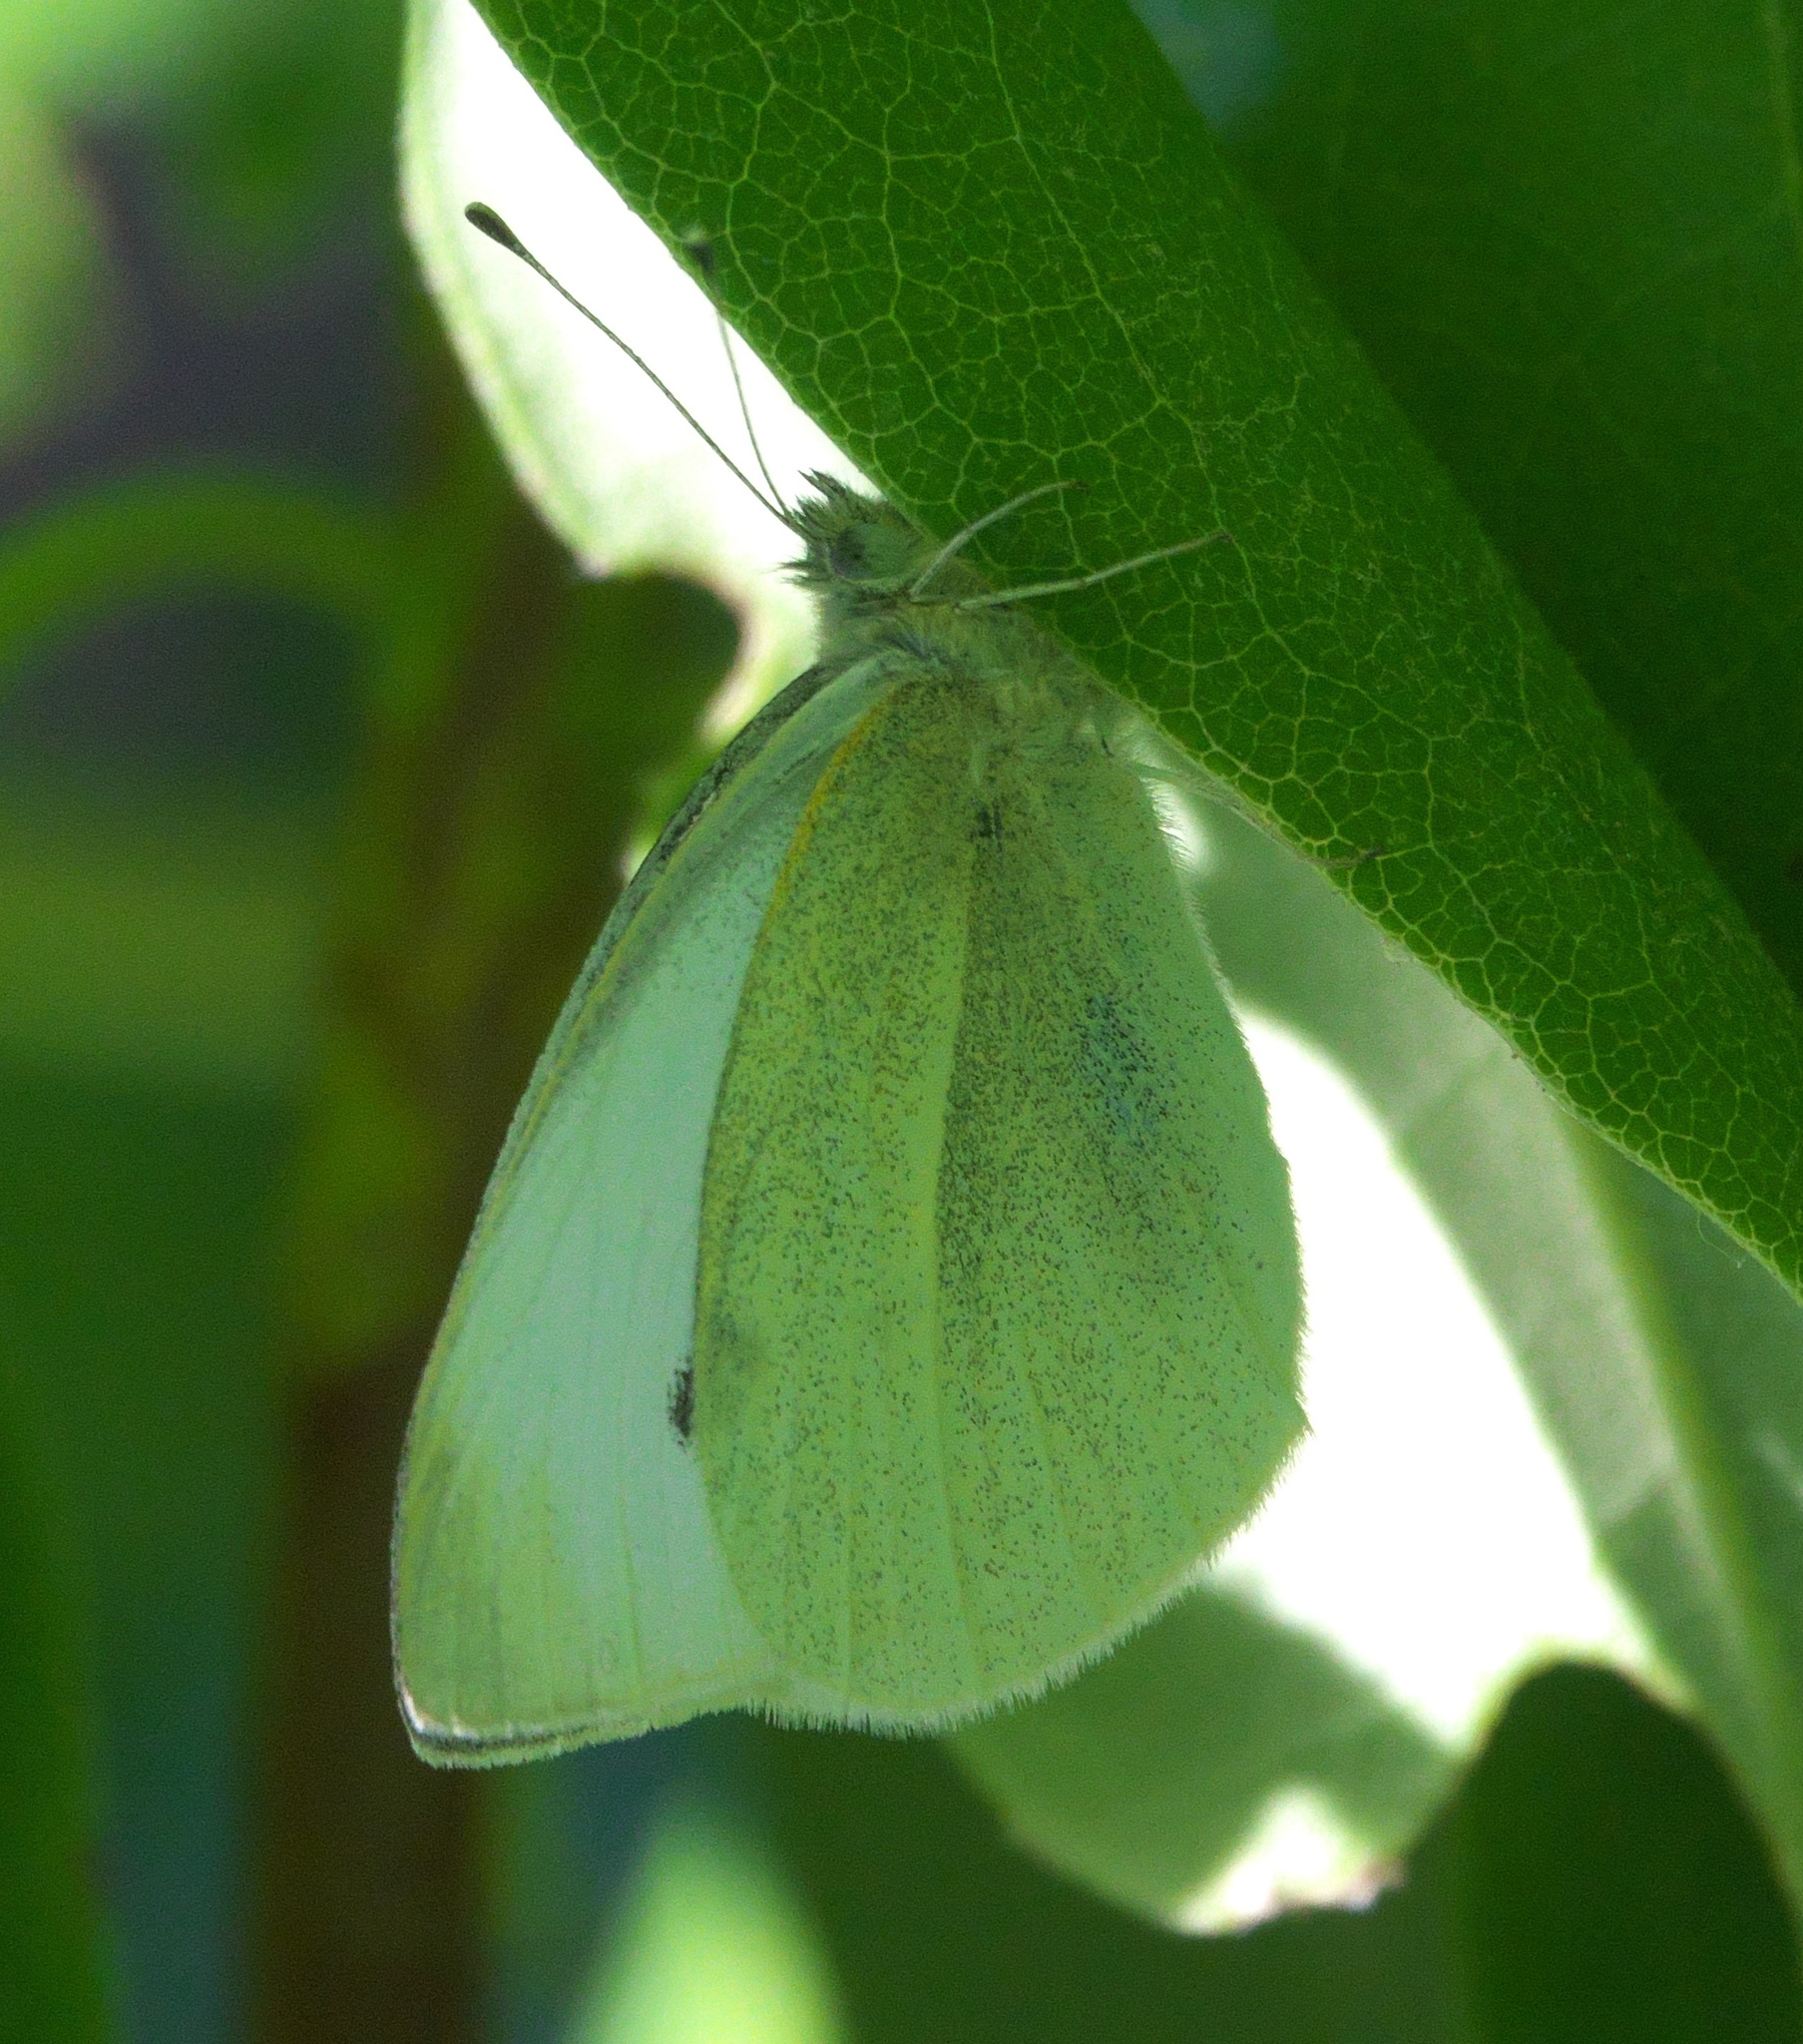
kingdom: Animalia
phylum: Arthropoda
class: Insecta
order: Lepidoptera
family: Pieridae
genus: Pieris
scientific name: Pieris rapae
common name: Small white
